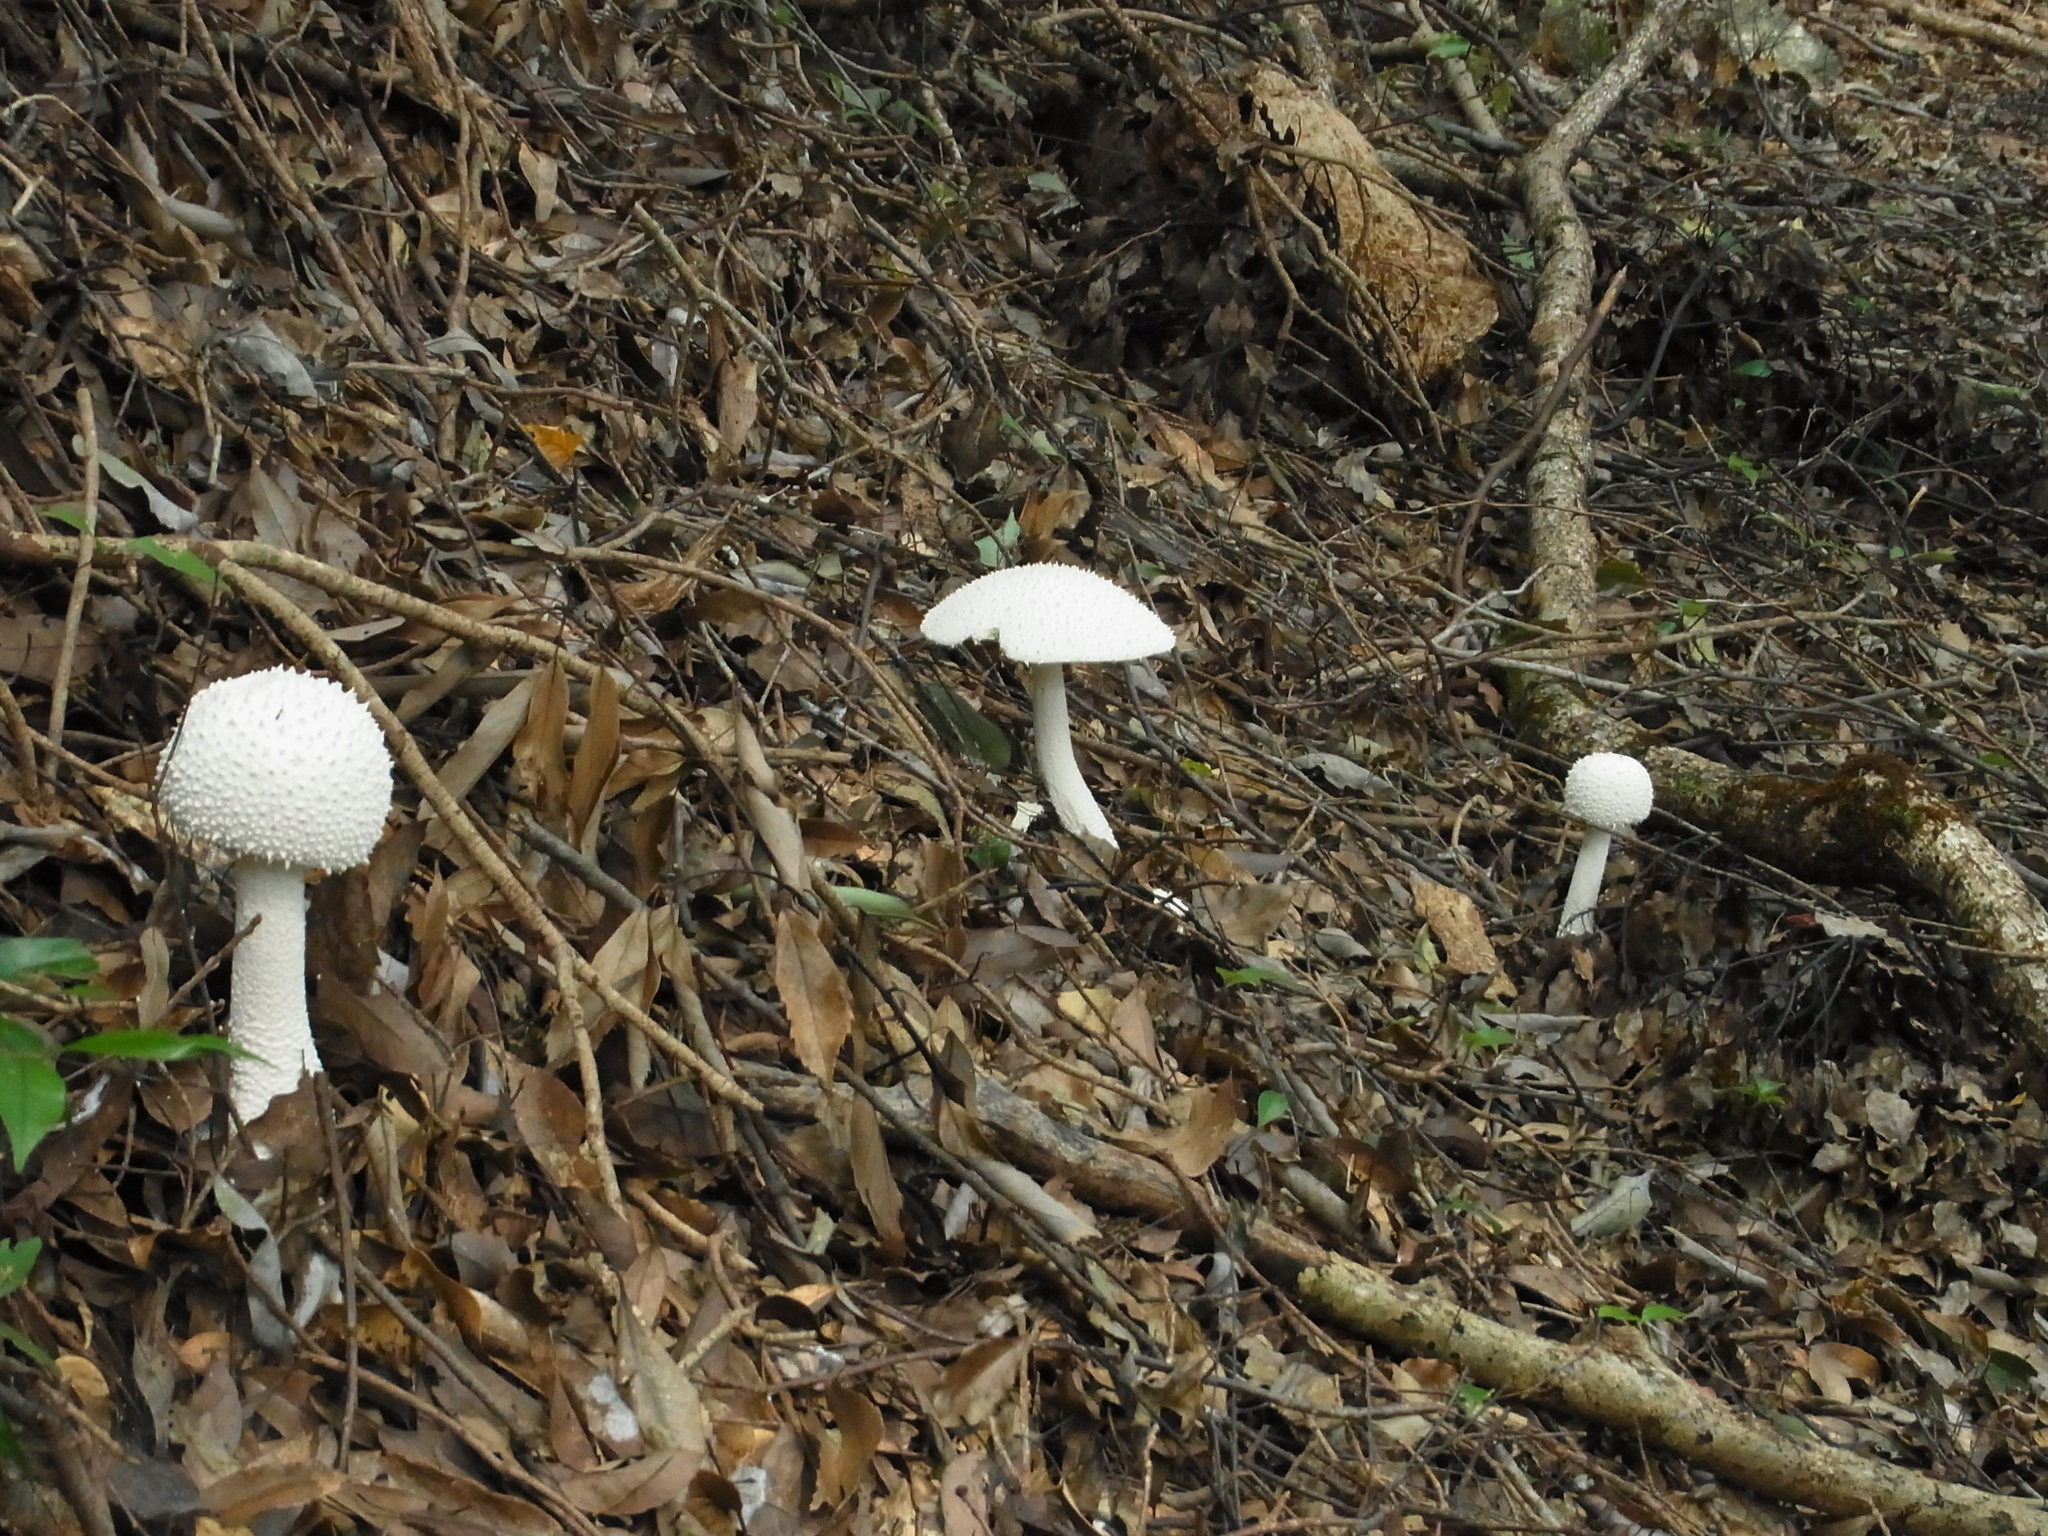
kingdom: Fungi
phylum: Basidiomycota
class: Agaricomycetes
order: Agaricales
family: Amanitaceae
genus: Amanita
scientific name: Amanita virgineoides
